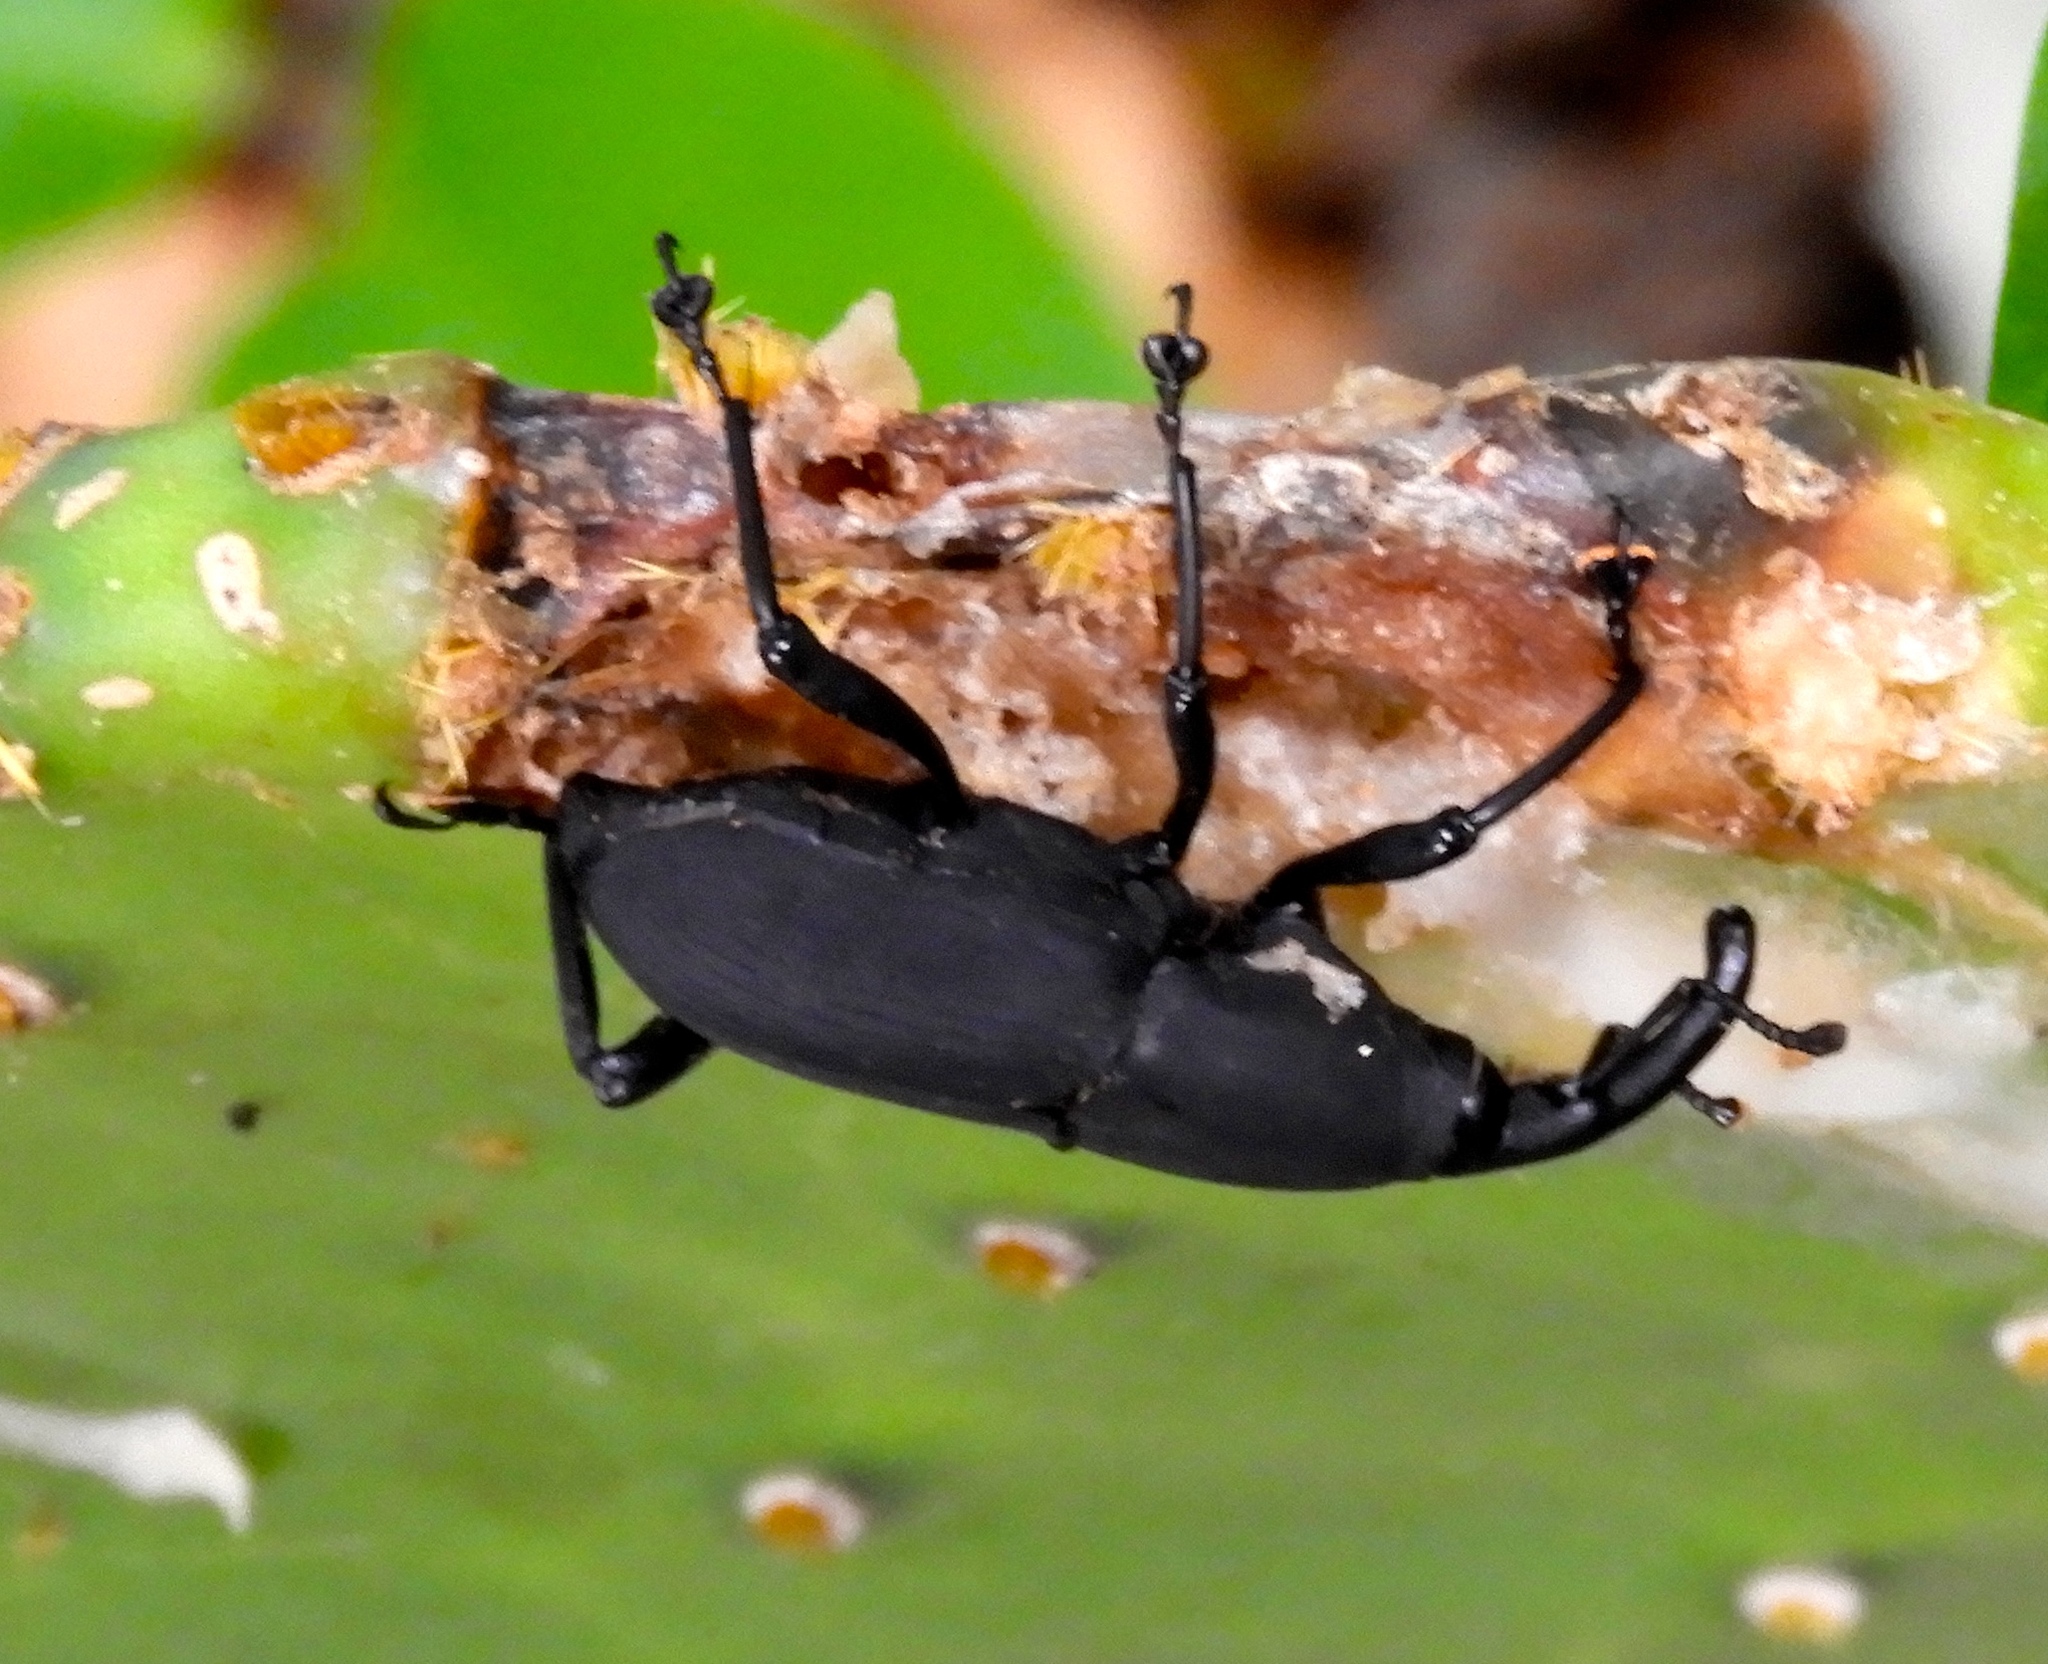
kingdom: Animalia
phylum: Arthropoda
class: Insecta
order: Coleoptera
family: Dryophthoridae
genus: Cactophagus
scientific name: Cactophagus spinolae
